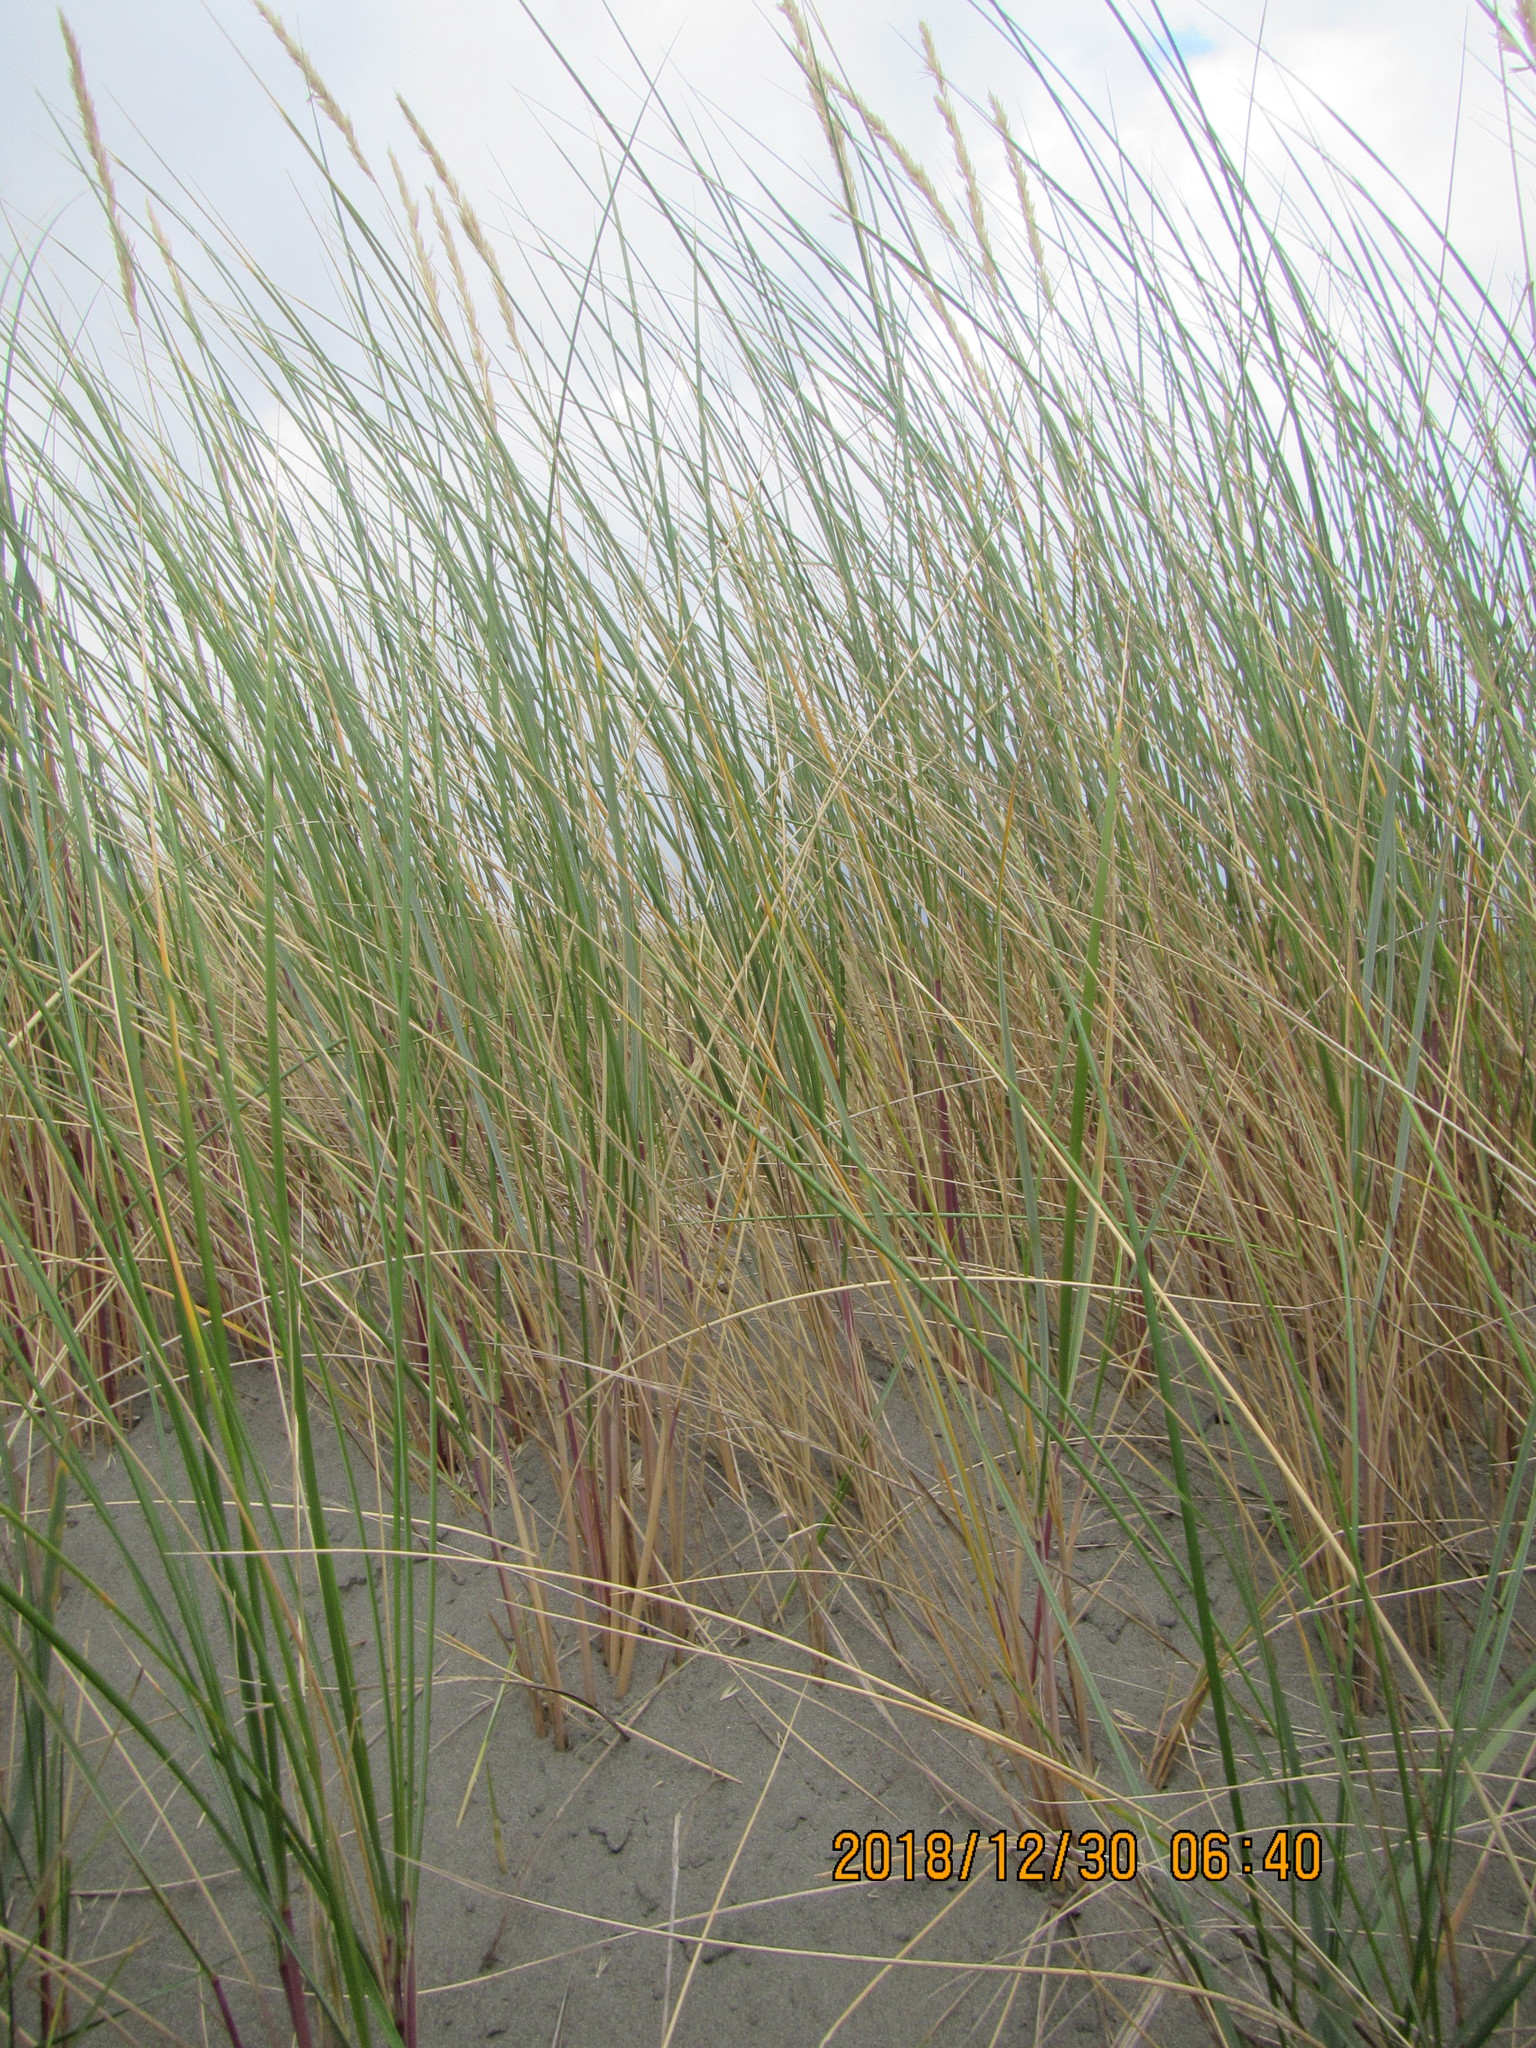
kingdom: Plantae
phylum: Tracheophyta
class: Liliopsida
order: Poales
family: Poaceae
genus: Calamagrostis
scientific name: Calamagrostis arenaria
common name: European beachgrass
